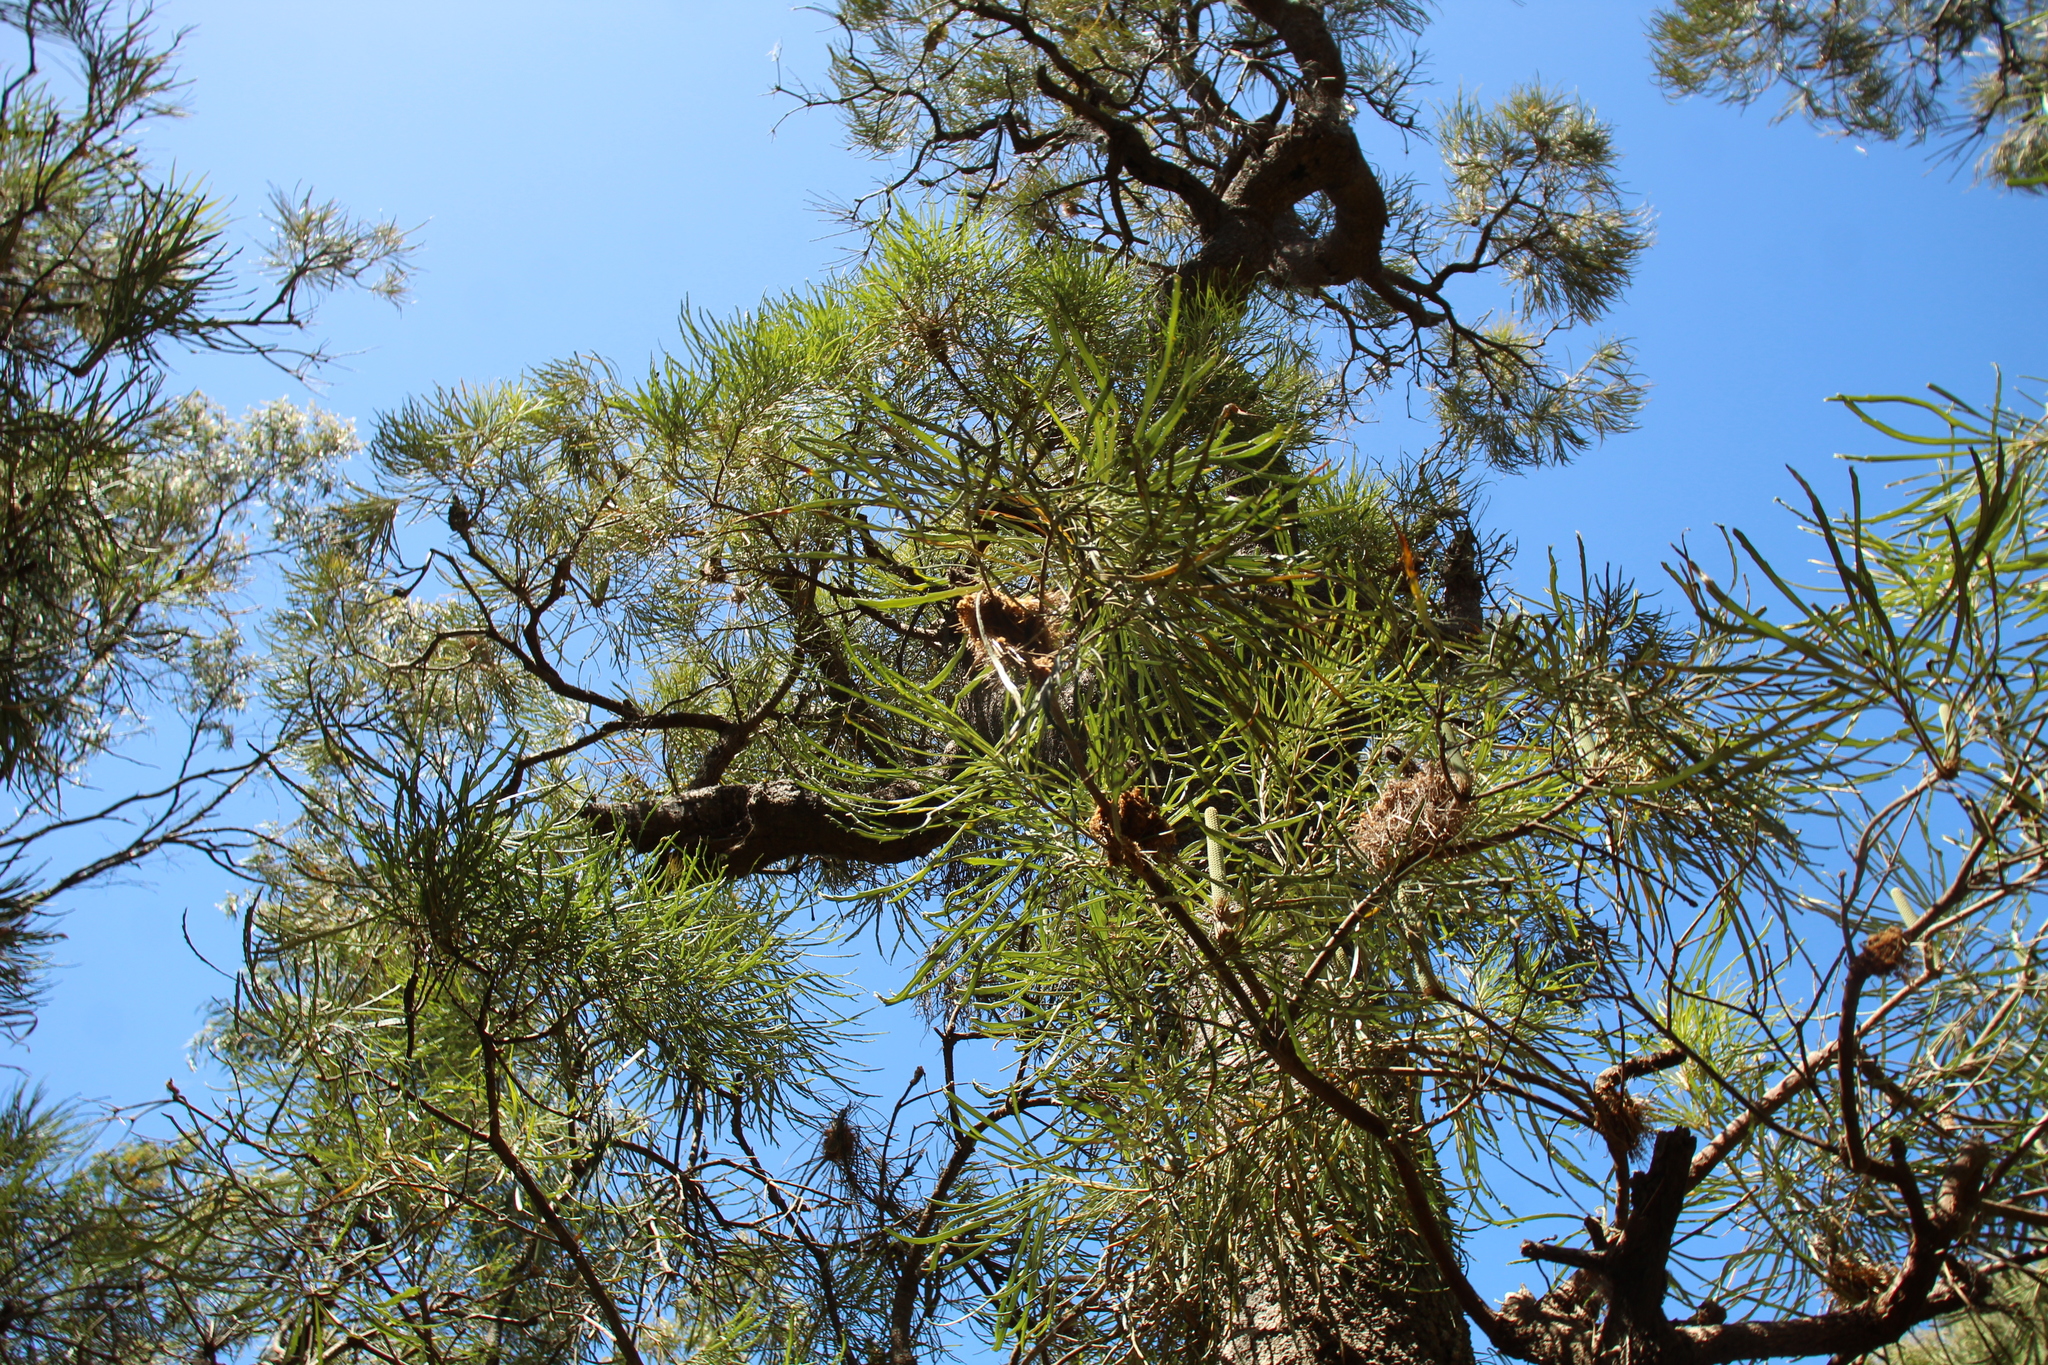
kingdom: Plantae
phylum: Tracheophyta
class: Magnoliopsida
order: Proteales
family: Proteaceae
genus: Banksia
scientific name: Banksia littoralis
